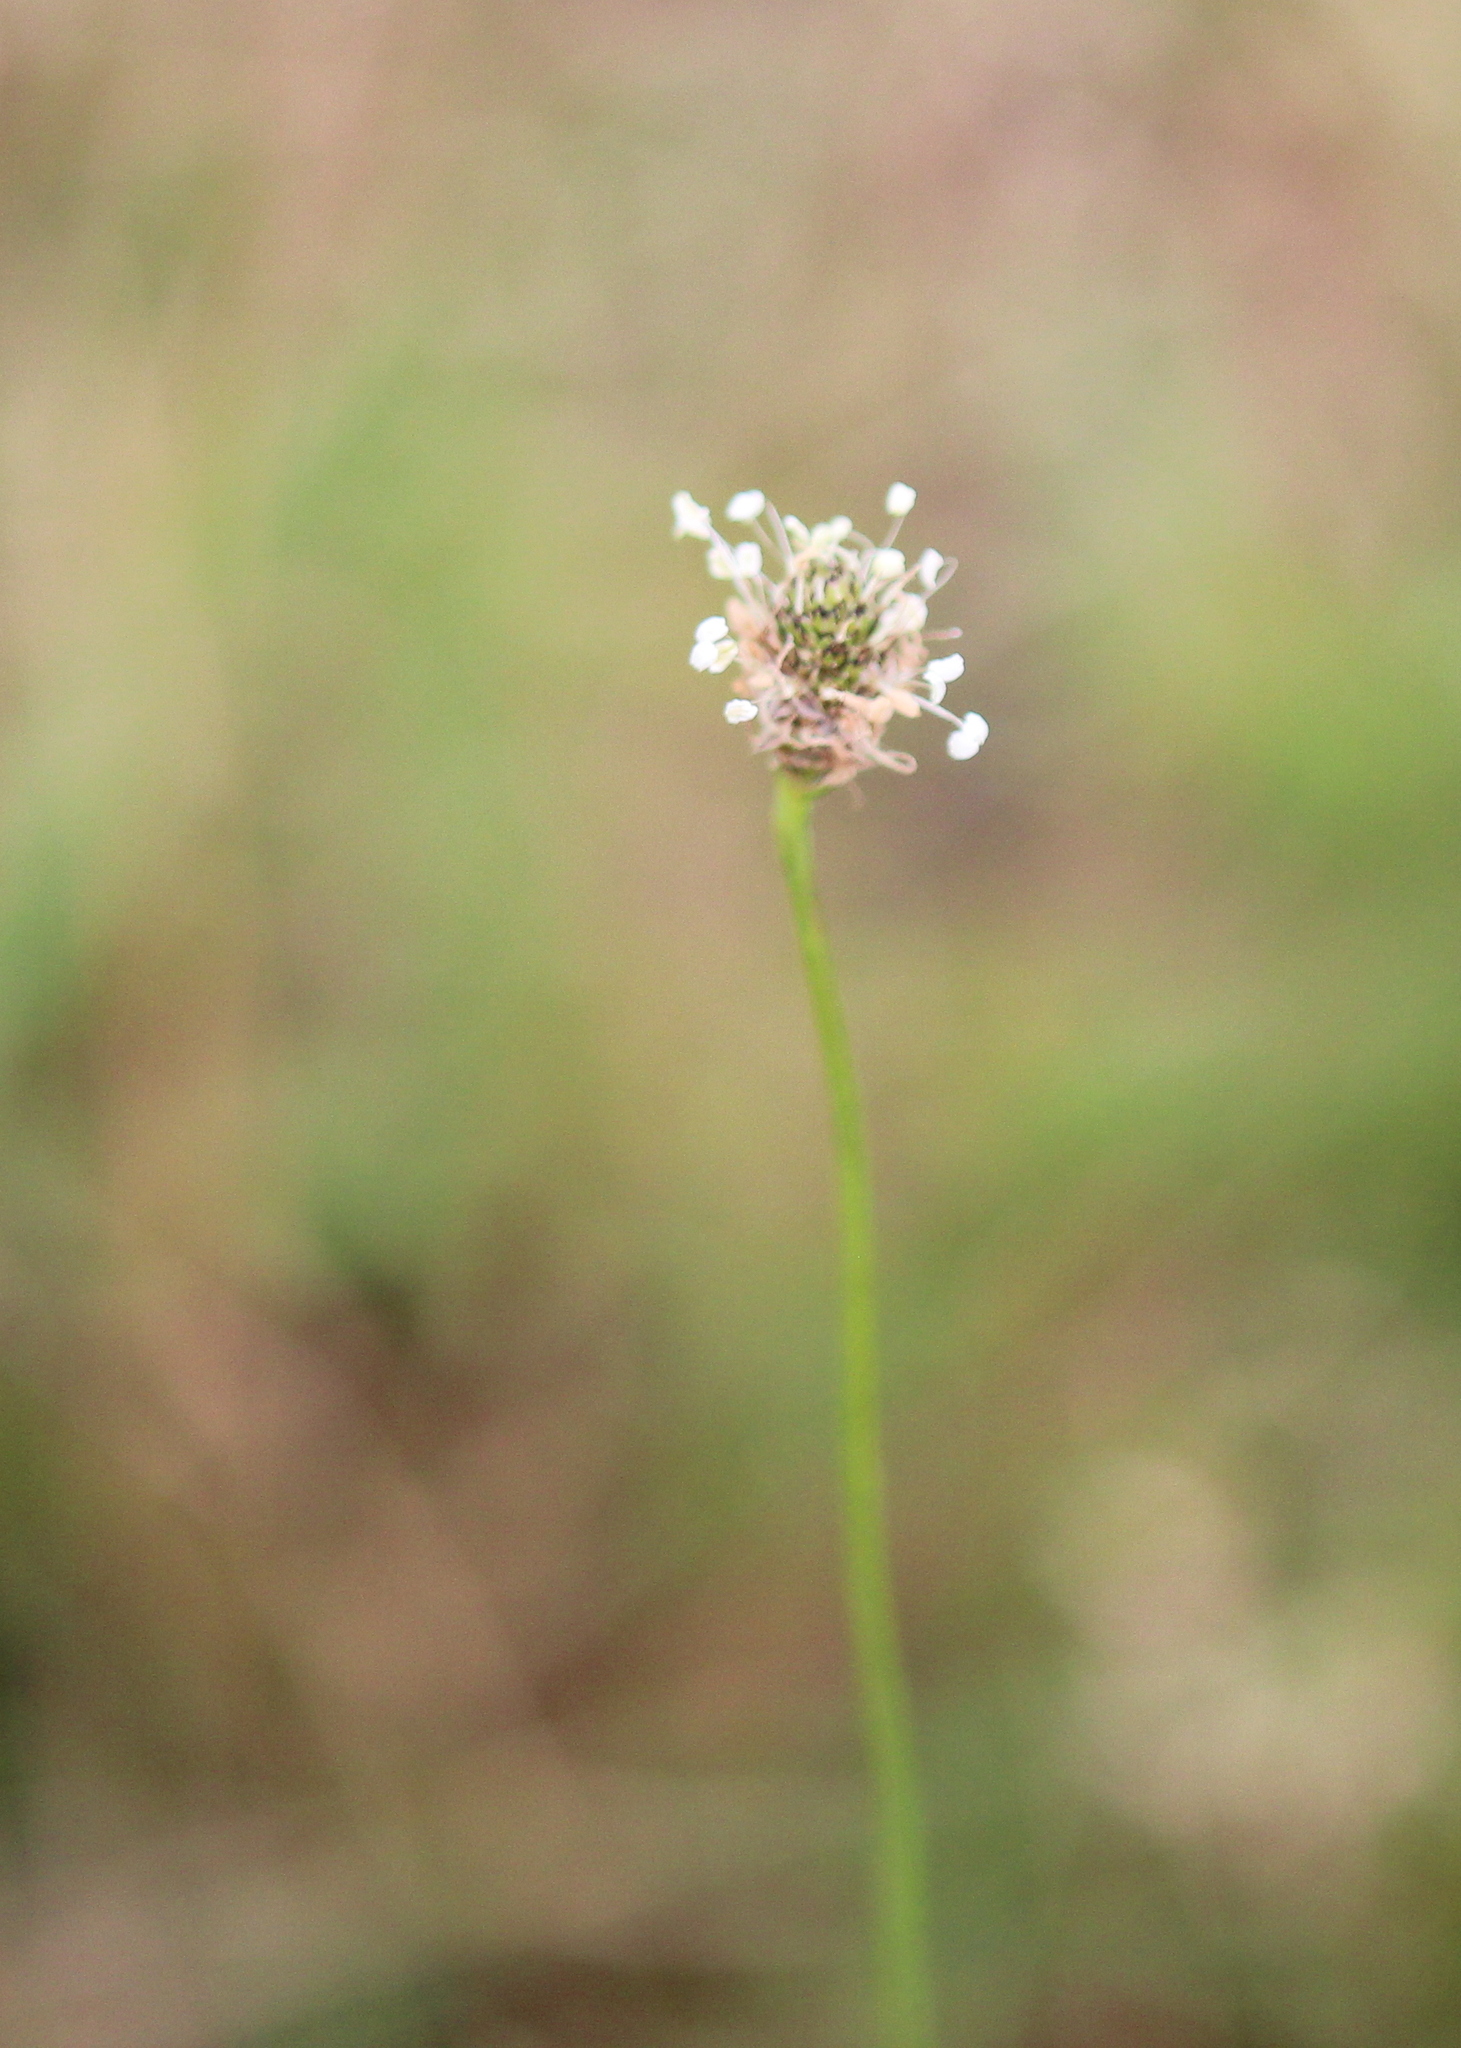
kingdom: Plantae
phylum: Tracheophyta
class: Magnoliopsida
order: Lamiales
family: Plantaginaceae
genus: Plantago
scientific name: Plantago lanceolata
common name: Ribwort plantain
